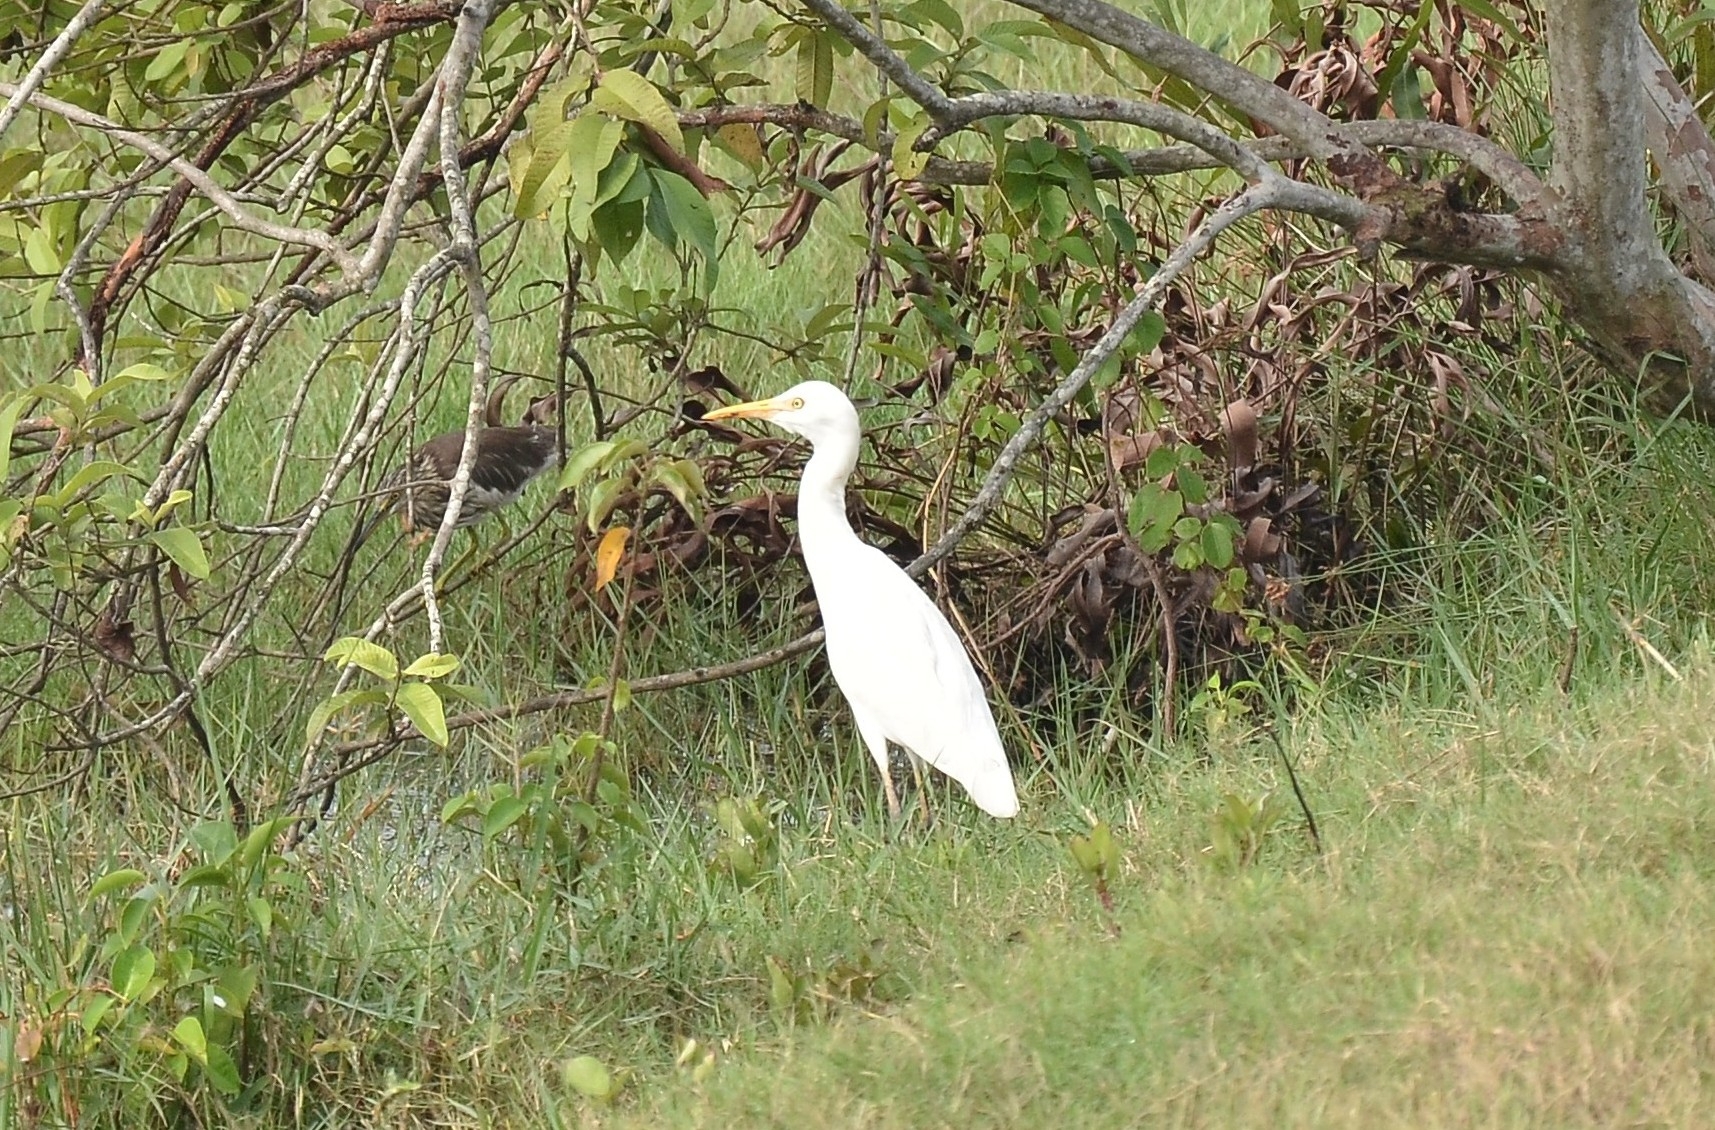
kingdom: Animalia
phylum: Chordata
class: Aves
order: Pelecaniformes
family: Ardeidae
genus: Bubulcus
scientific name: Bubulcus coromandus
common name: Eastern cattle egret
